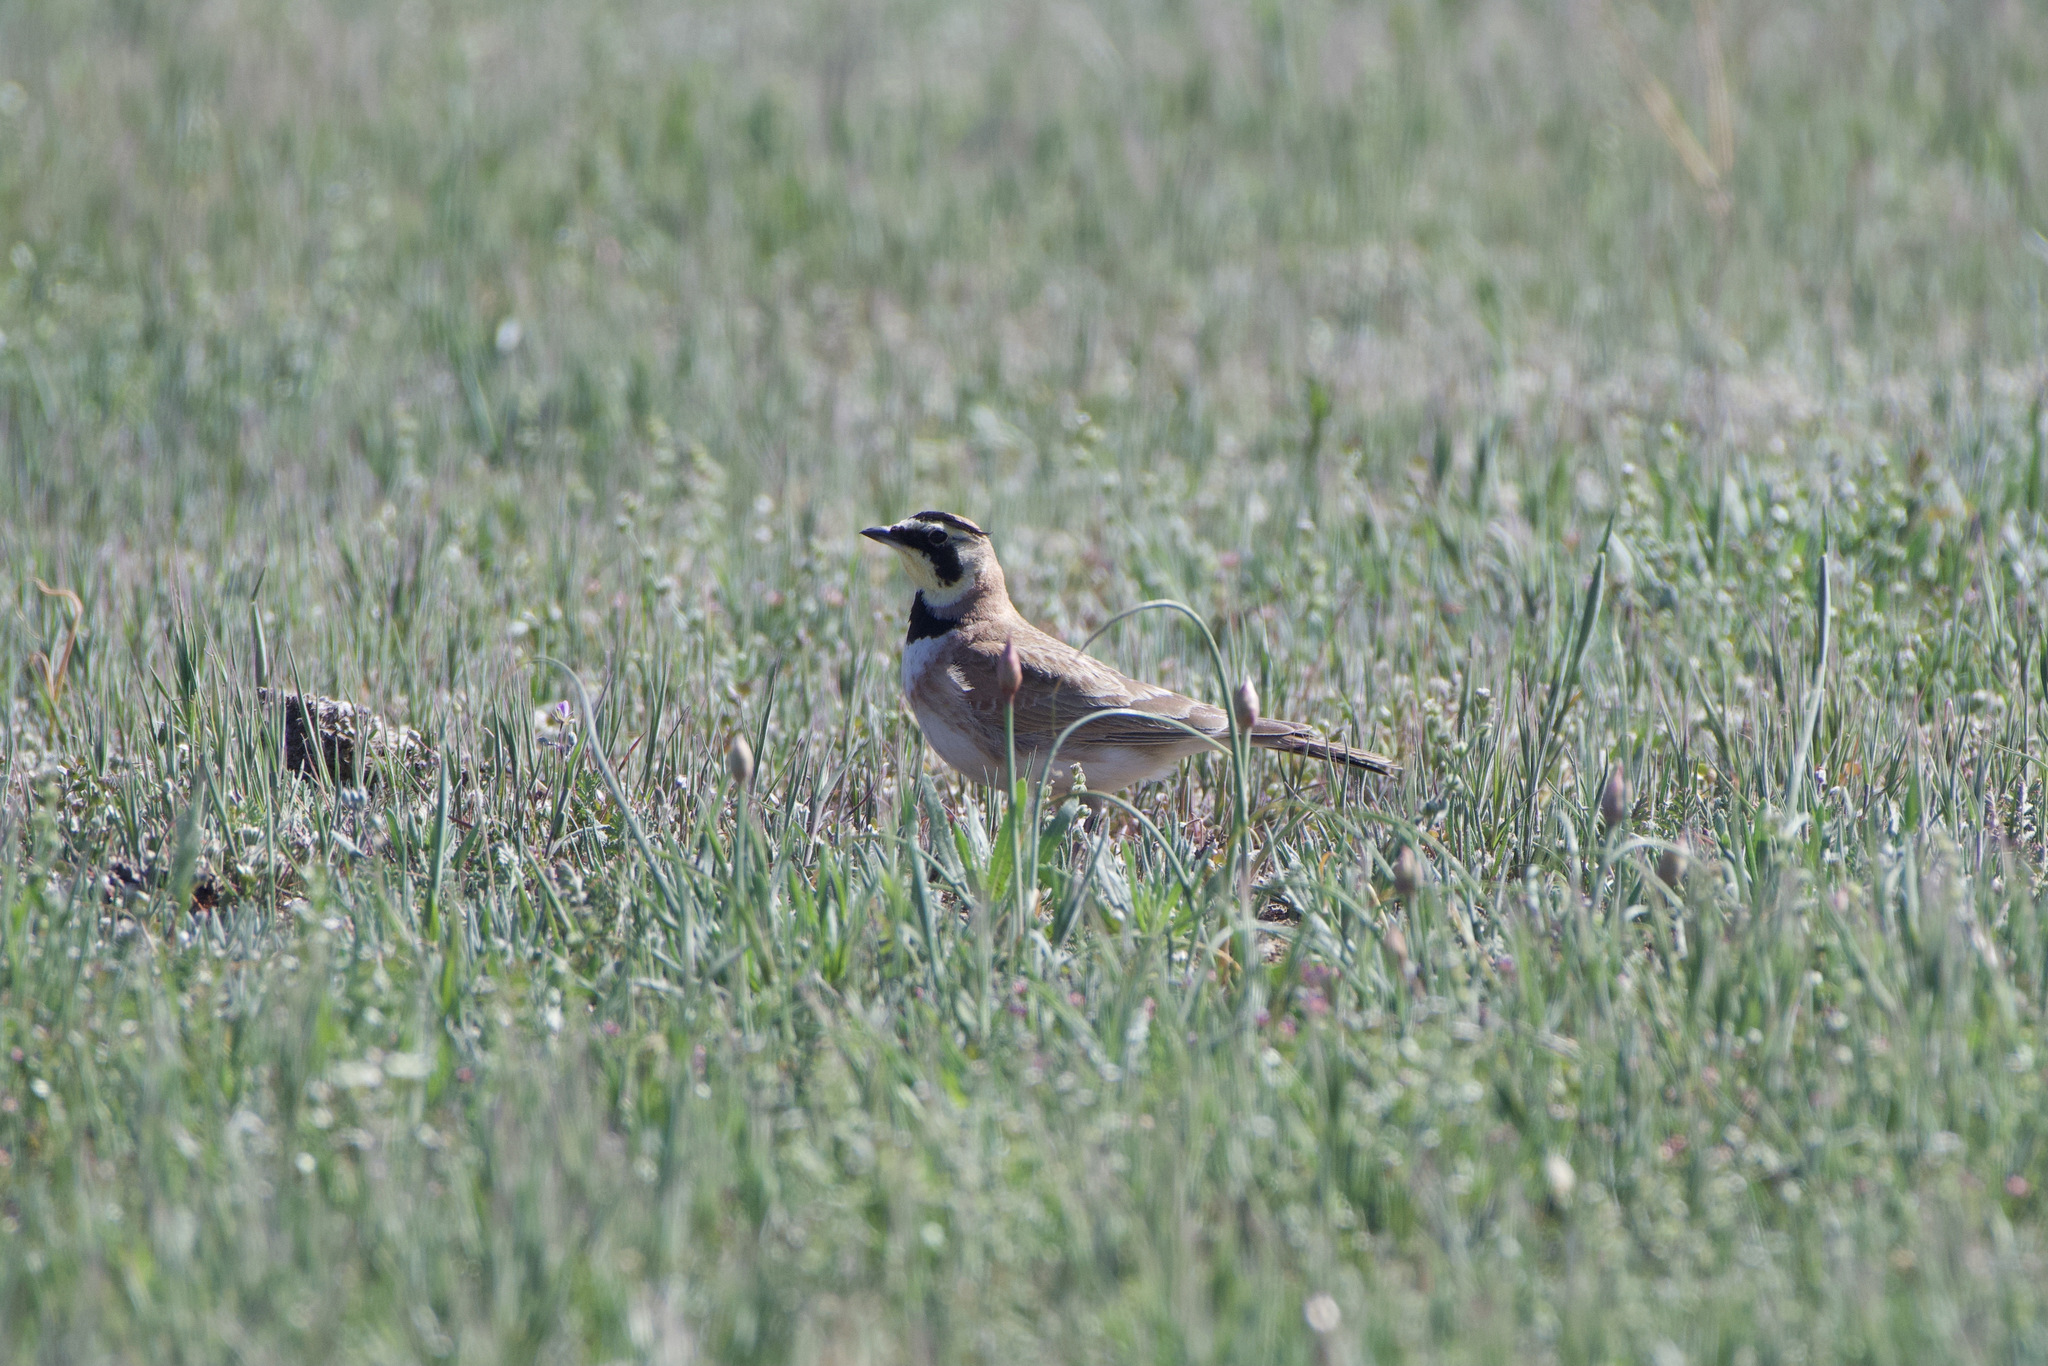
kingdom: Animalia
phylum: Chordata
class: Aves
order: Passeriformes
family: Alaudidae
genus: Eremophila
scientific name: Eremophila alpestris
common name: Horned lark
